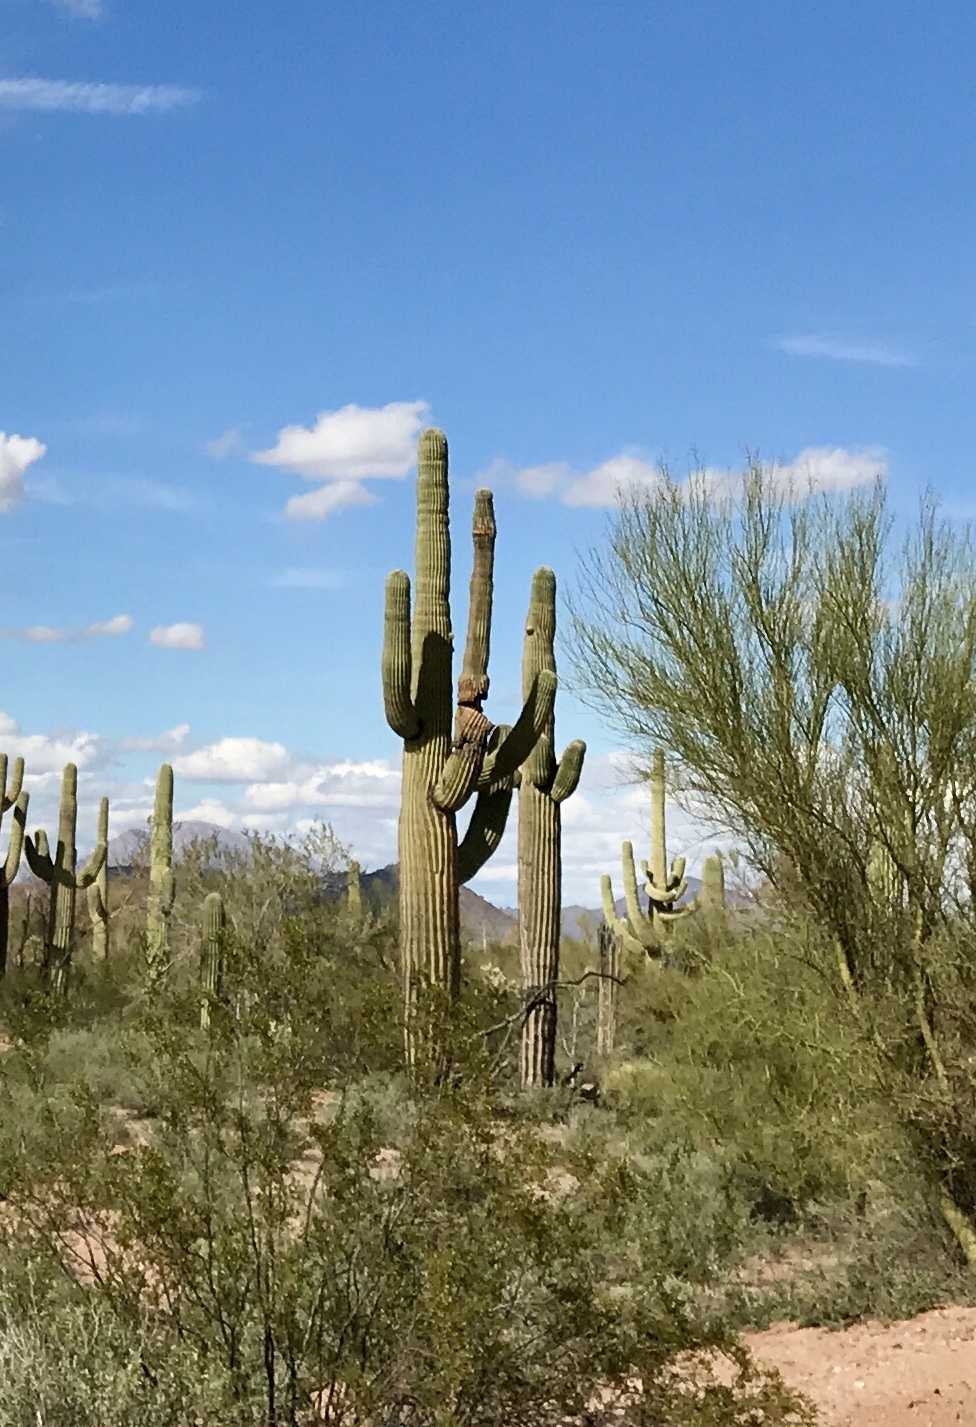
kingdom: Plantae
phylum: Tracheophyta
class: Magnoliopsida
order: Caryophyllales
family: Cactaceae
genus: Carnegiea
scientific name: Carnegiea gigantea
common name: Saguaro
